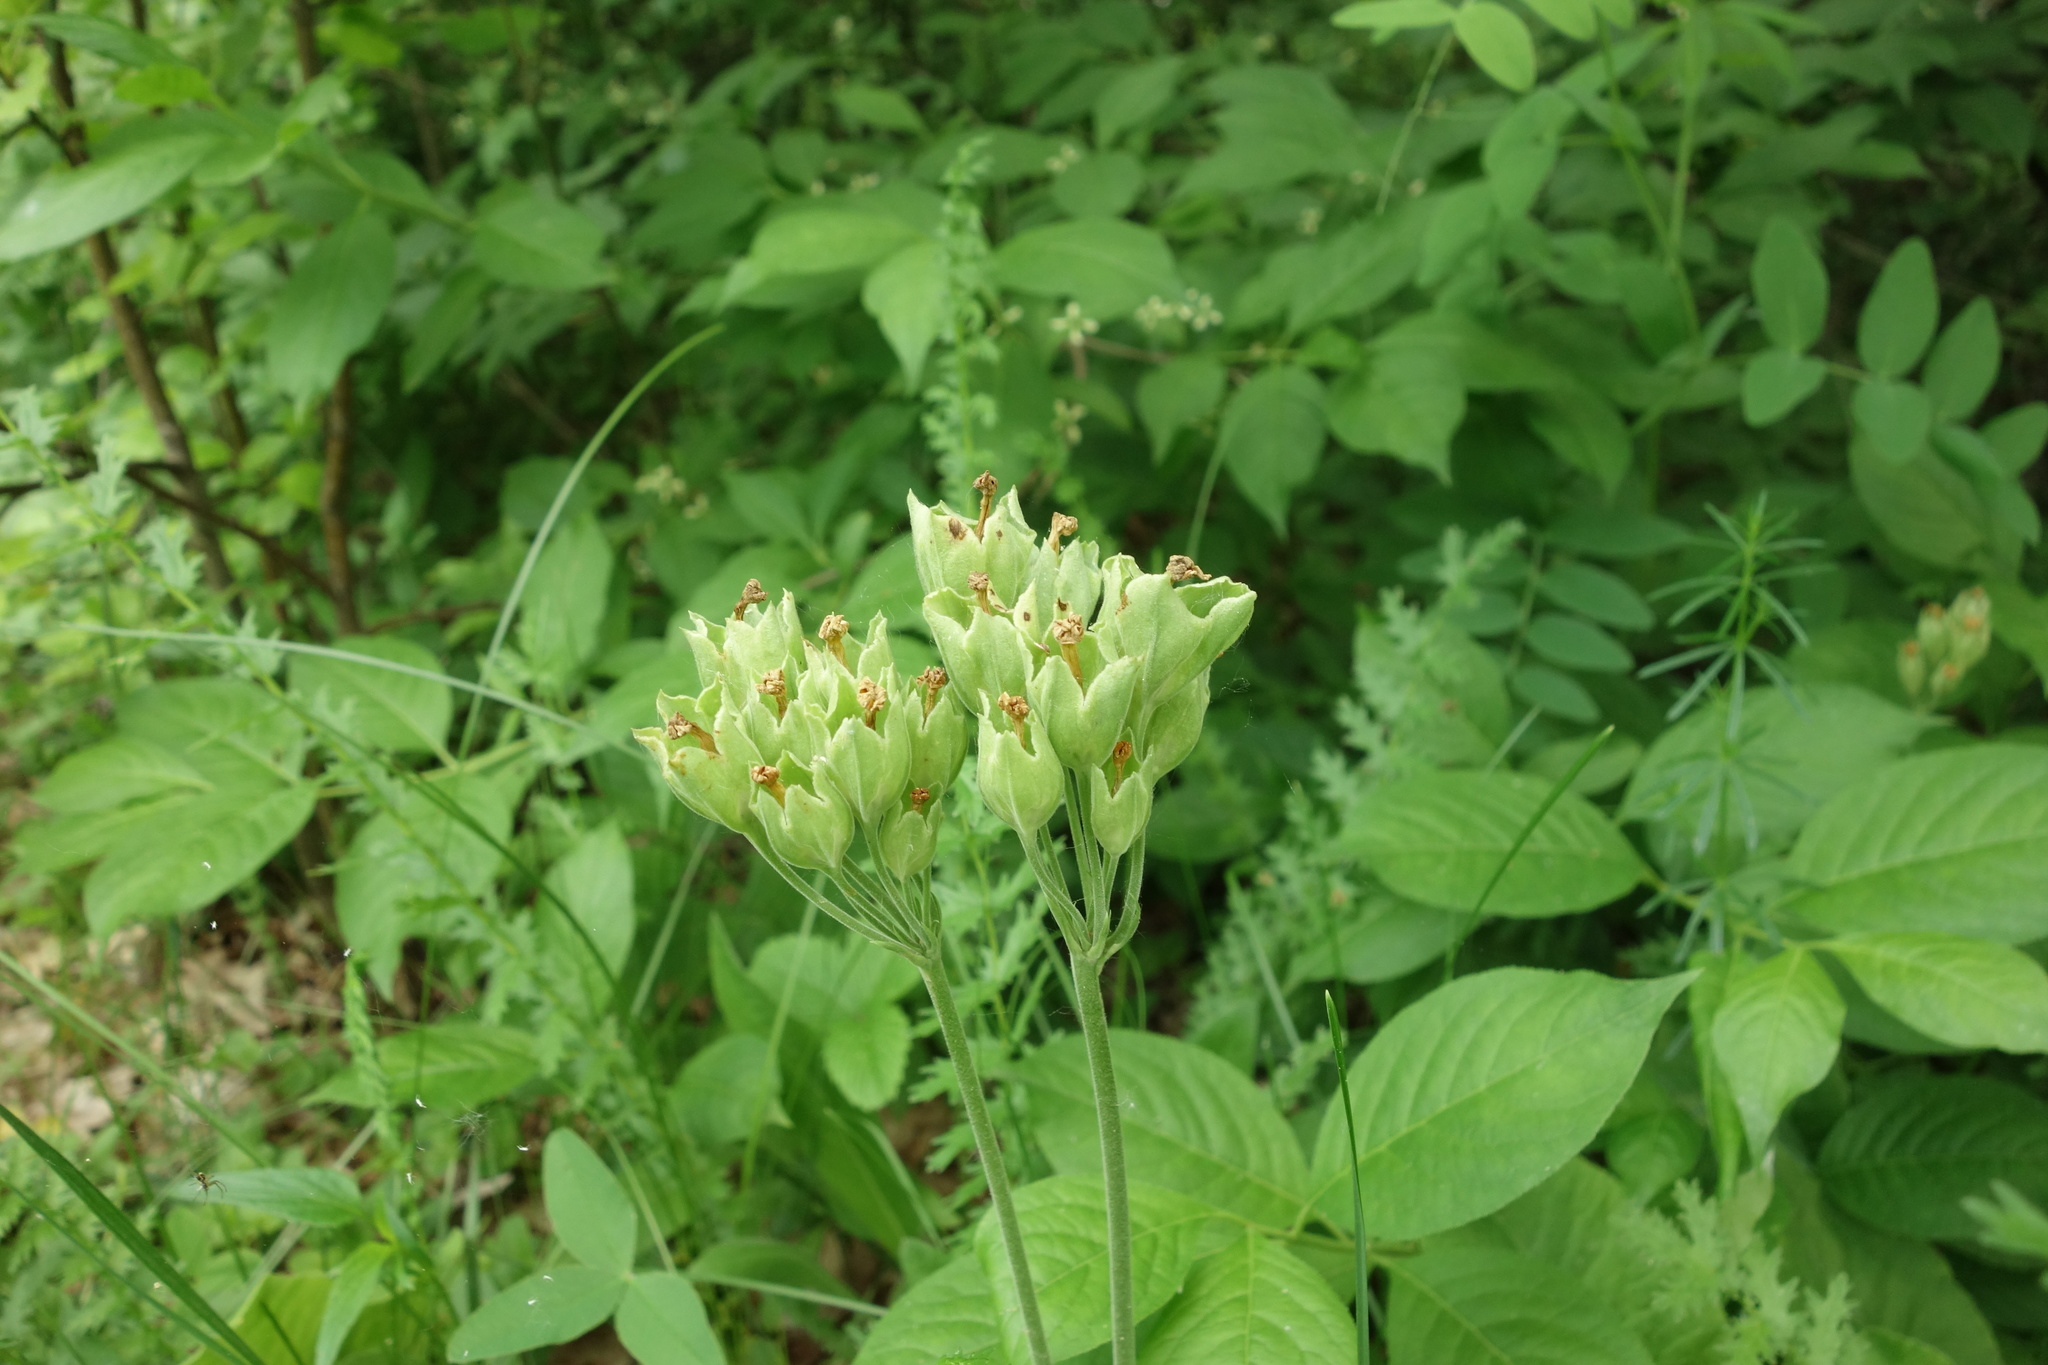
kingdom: Plantae
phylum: Tracheophyta
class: Magnoliopsida
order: Ericales
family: Primulaceae
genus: Primula
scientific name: Primula veris
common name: Cowslip
